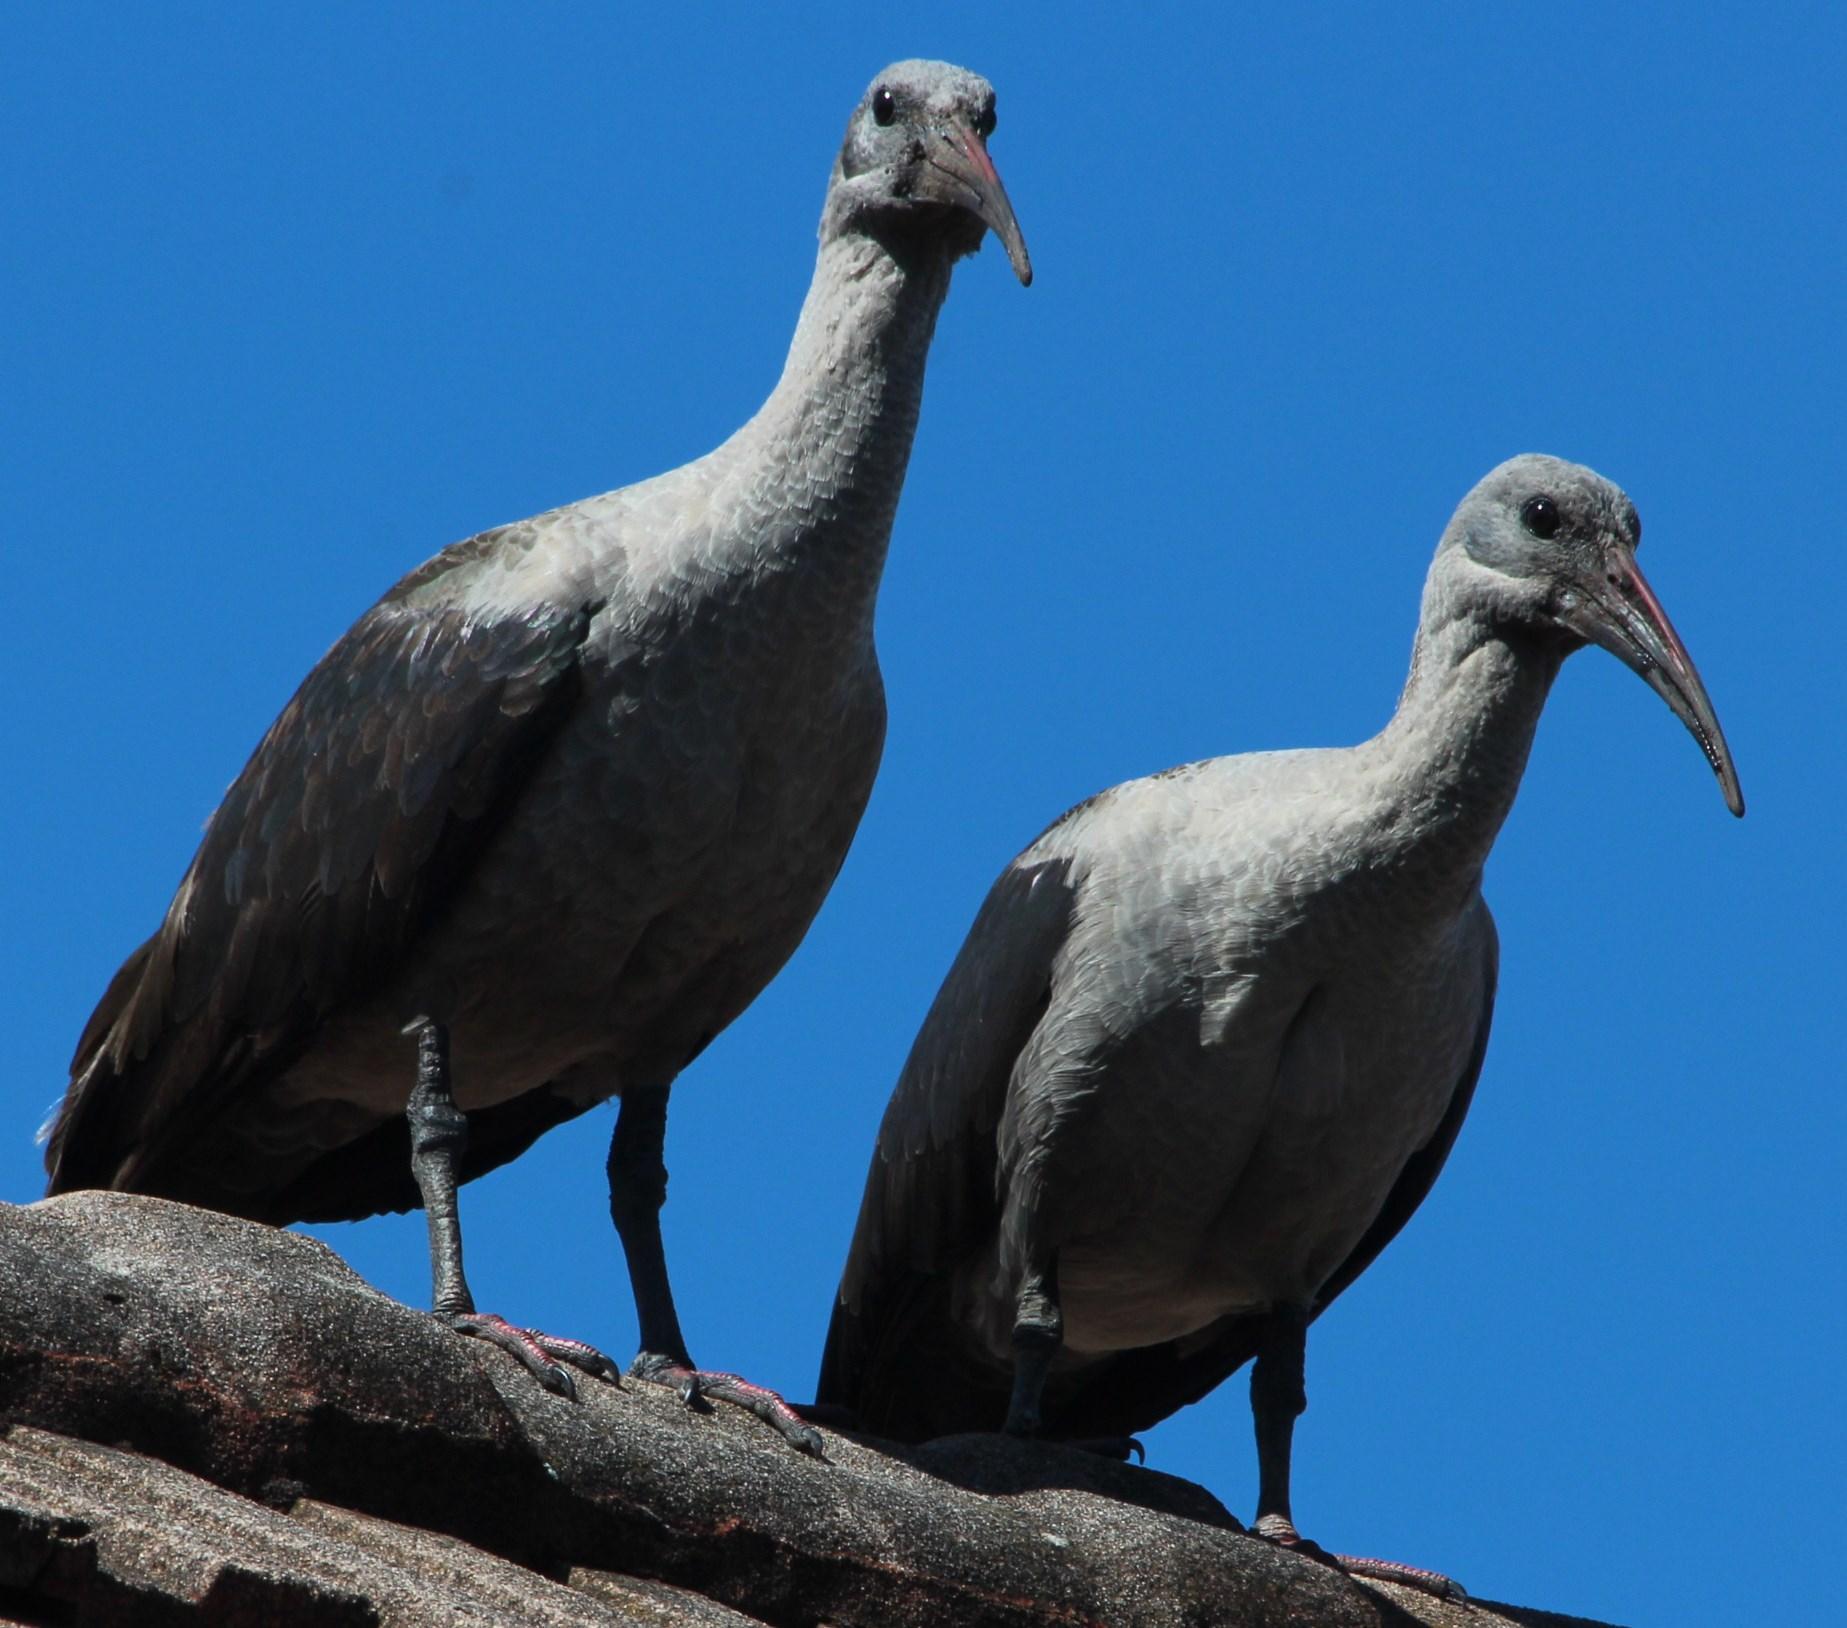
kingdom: Animalia
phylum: Chordata
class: Aves
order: Pelecaniformes
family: Threskiornithidae
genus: Bostrychia
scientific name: Bostrychia hagedash
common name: Hadada ibis
